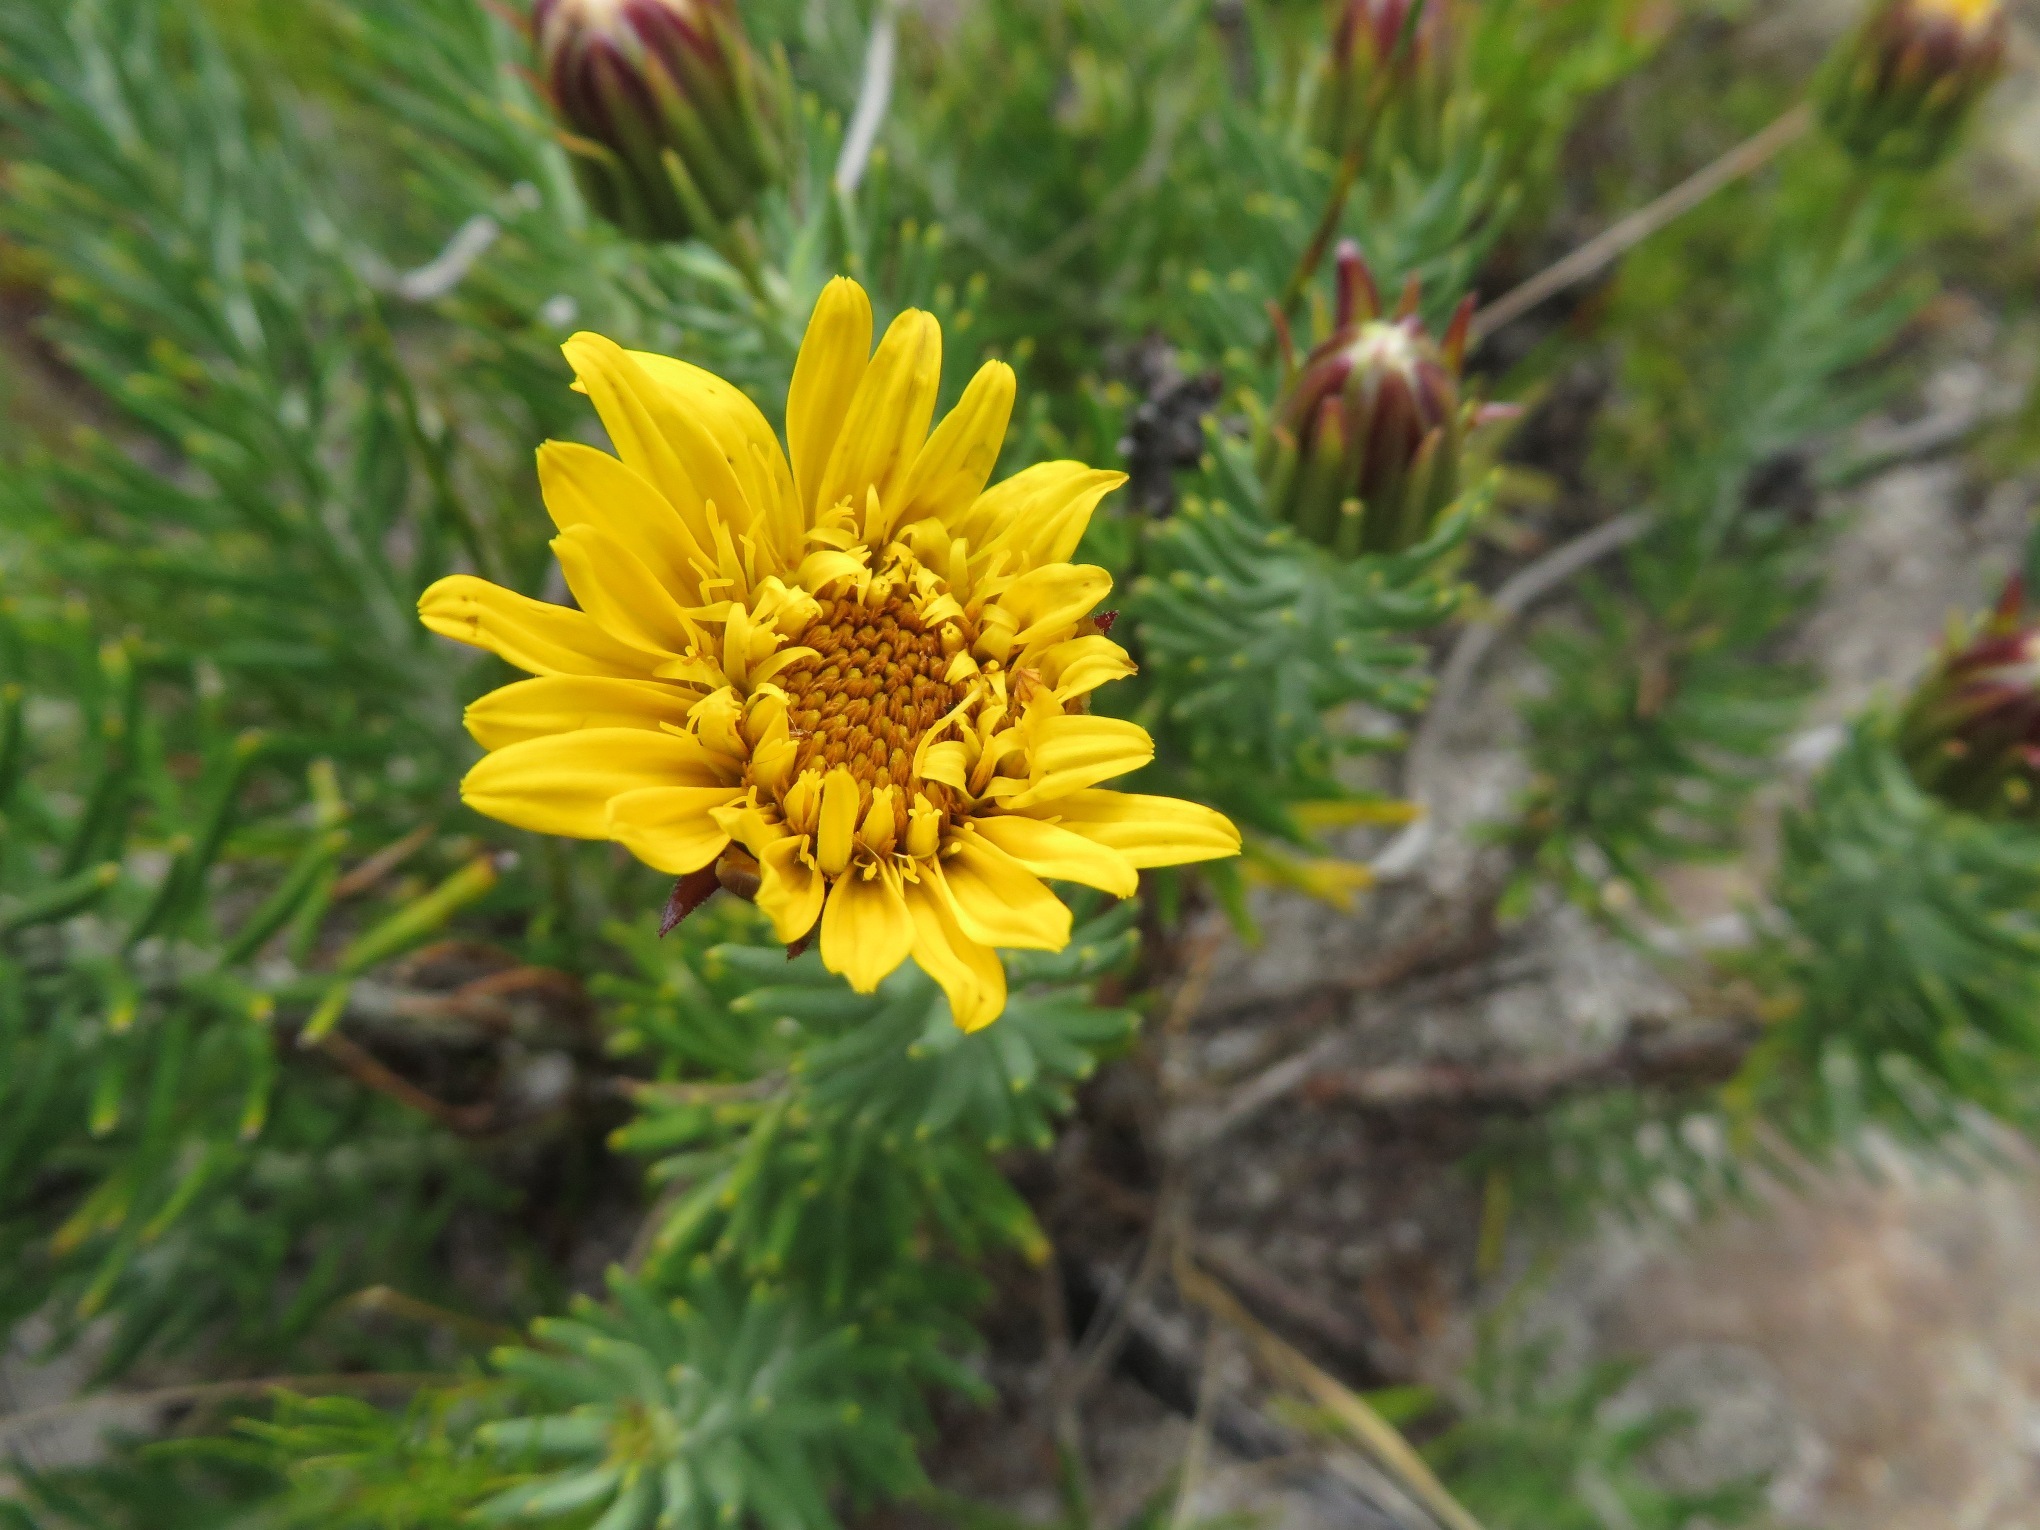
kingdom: Plantae
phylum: Tracheophyta
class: Magnoliopsida
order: Asterales
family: Asteraceae
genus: Heterolepis
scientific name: Heterolepis aliena
